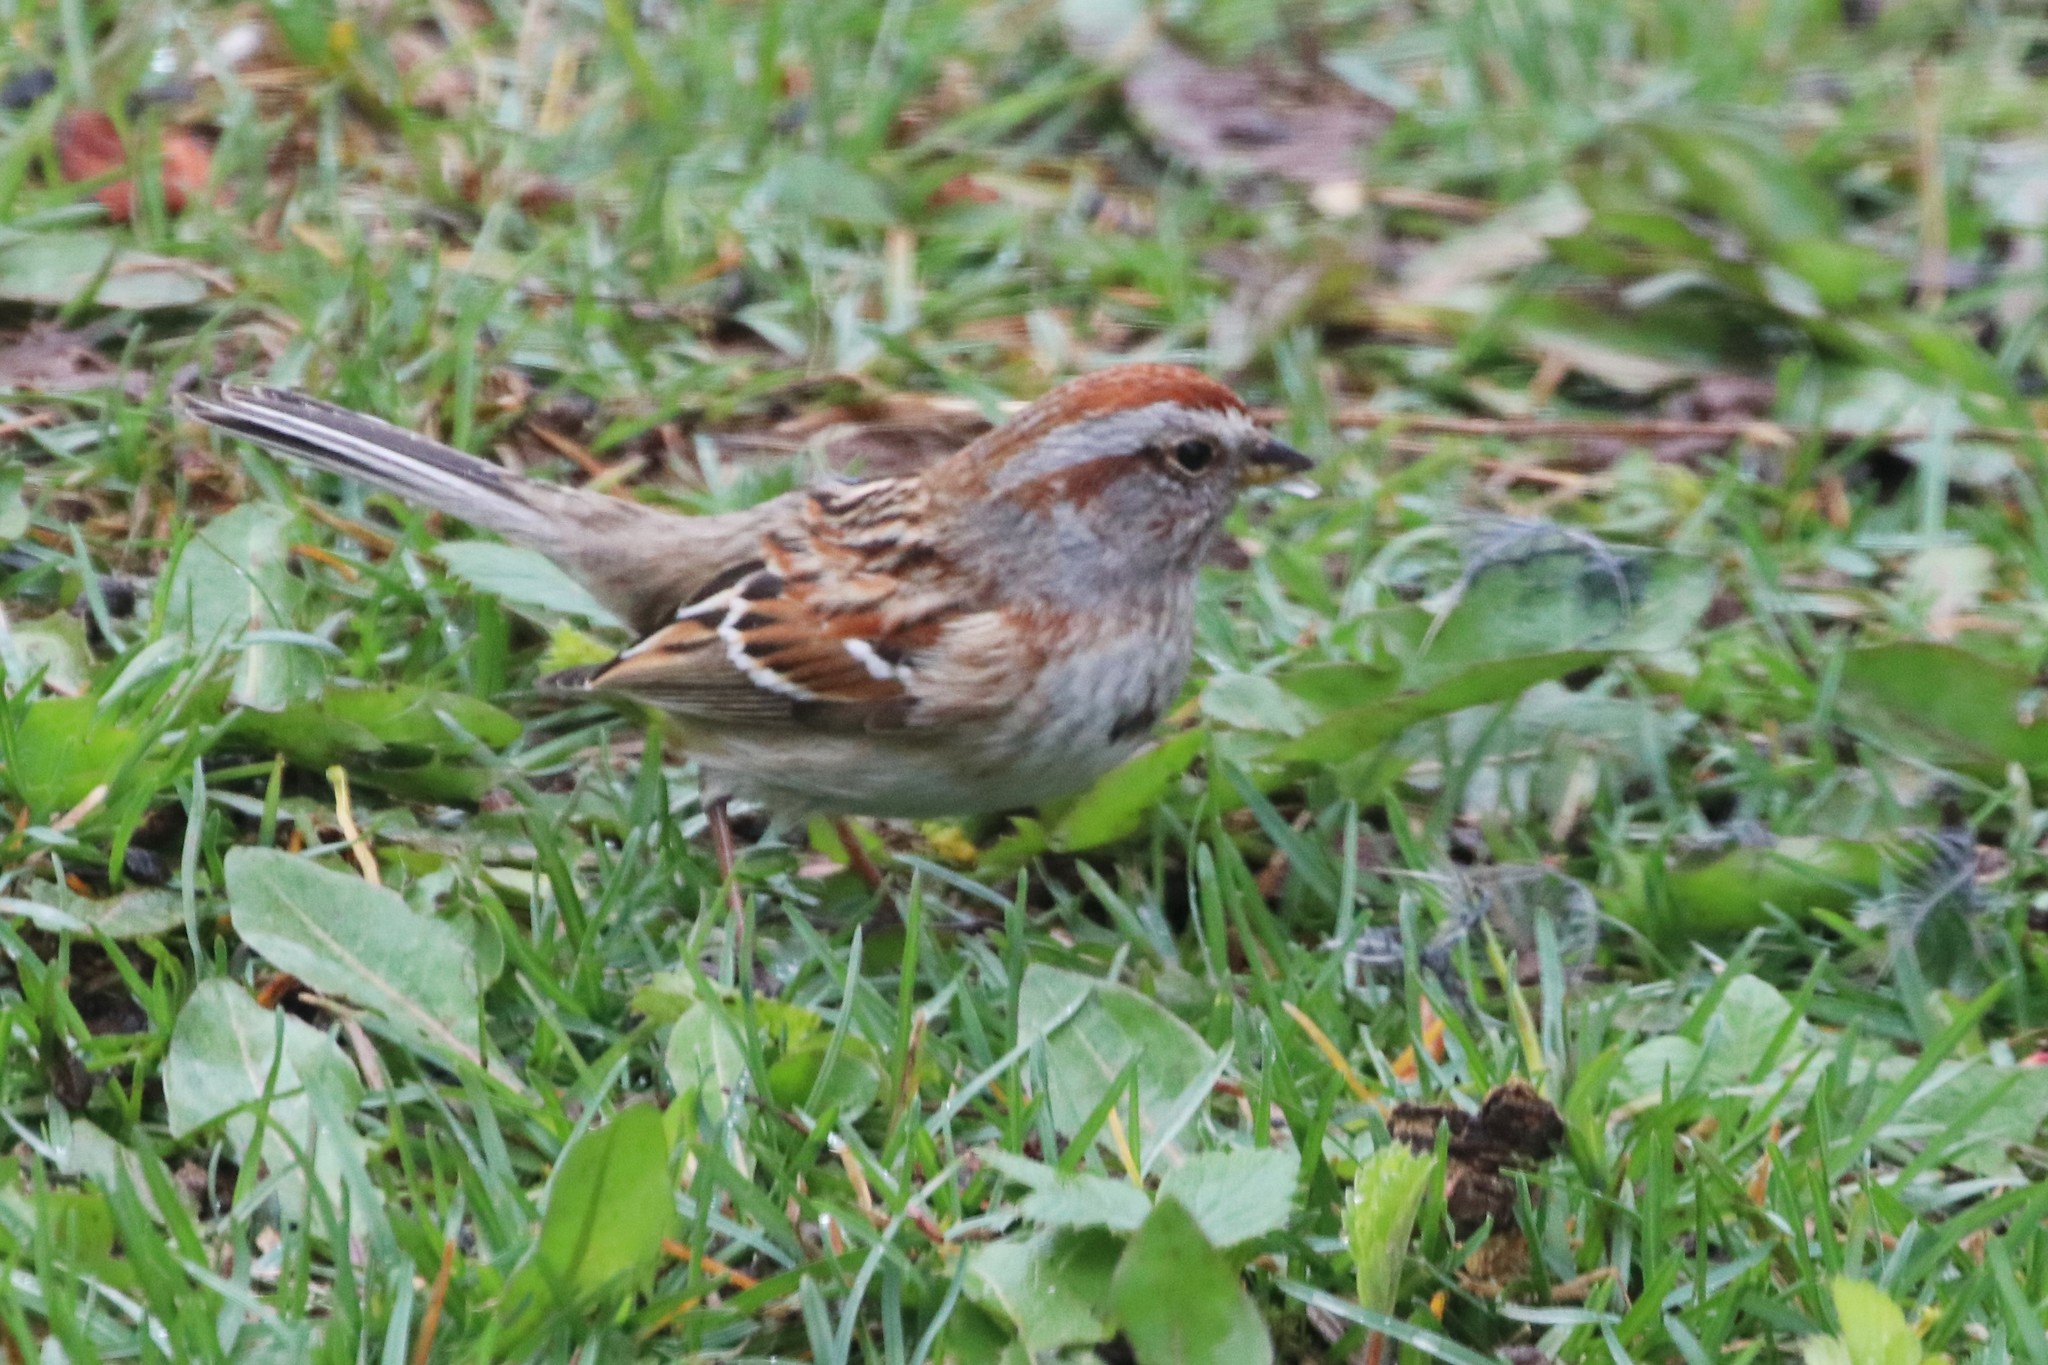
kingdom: Animalia
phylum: Chordata
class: Aves
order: Passeriformes
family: Passerellidae
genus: Spizelloides
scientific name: Spizelloides arborea
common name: American tree sparrow
